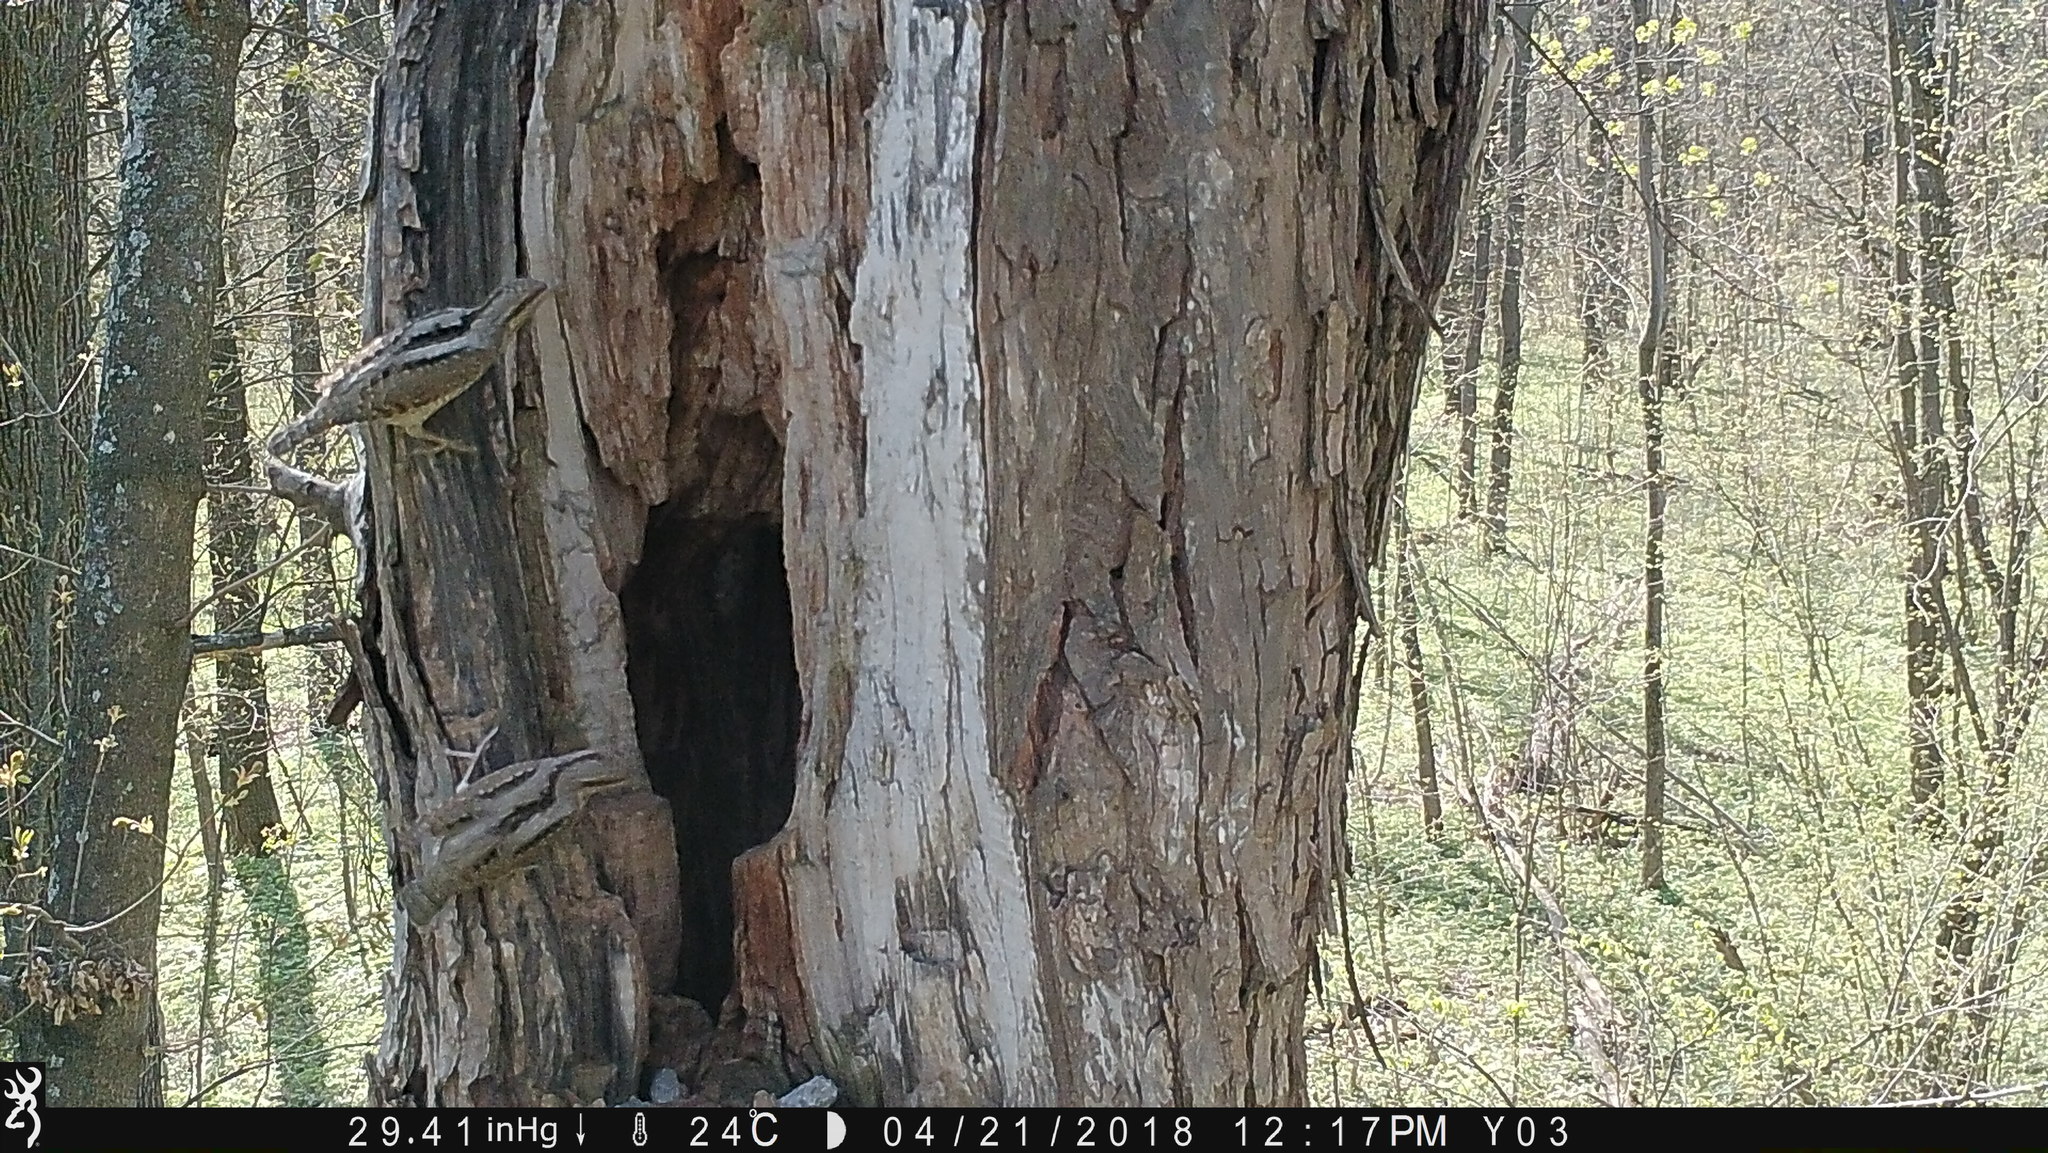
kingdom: Animalia
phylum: Chordata
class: Aves
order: Piciformes
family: Picidae
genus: Jynx
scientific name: Jynx torquilla
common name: Eurasian wryneck
